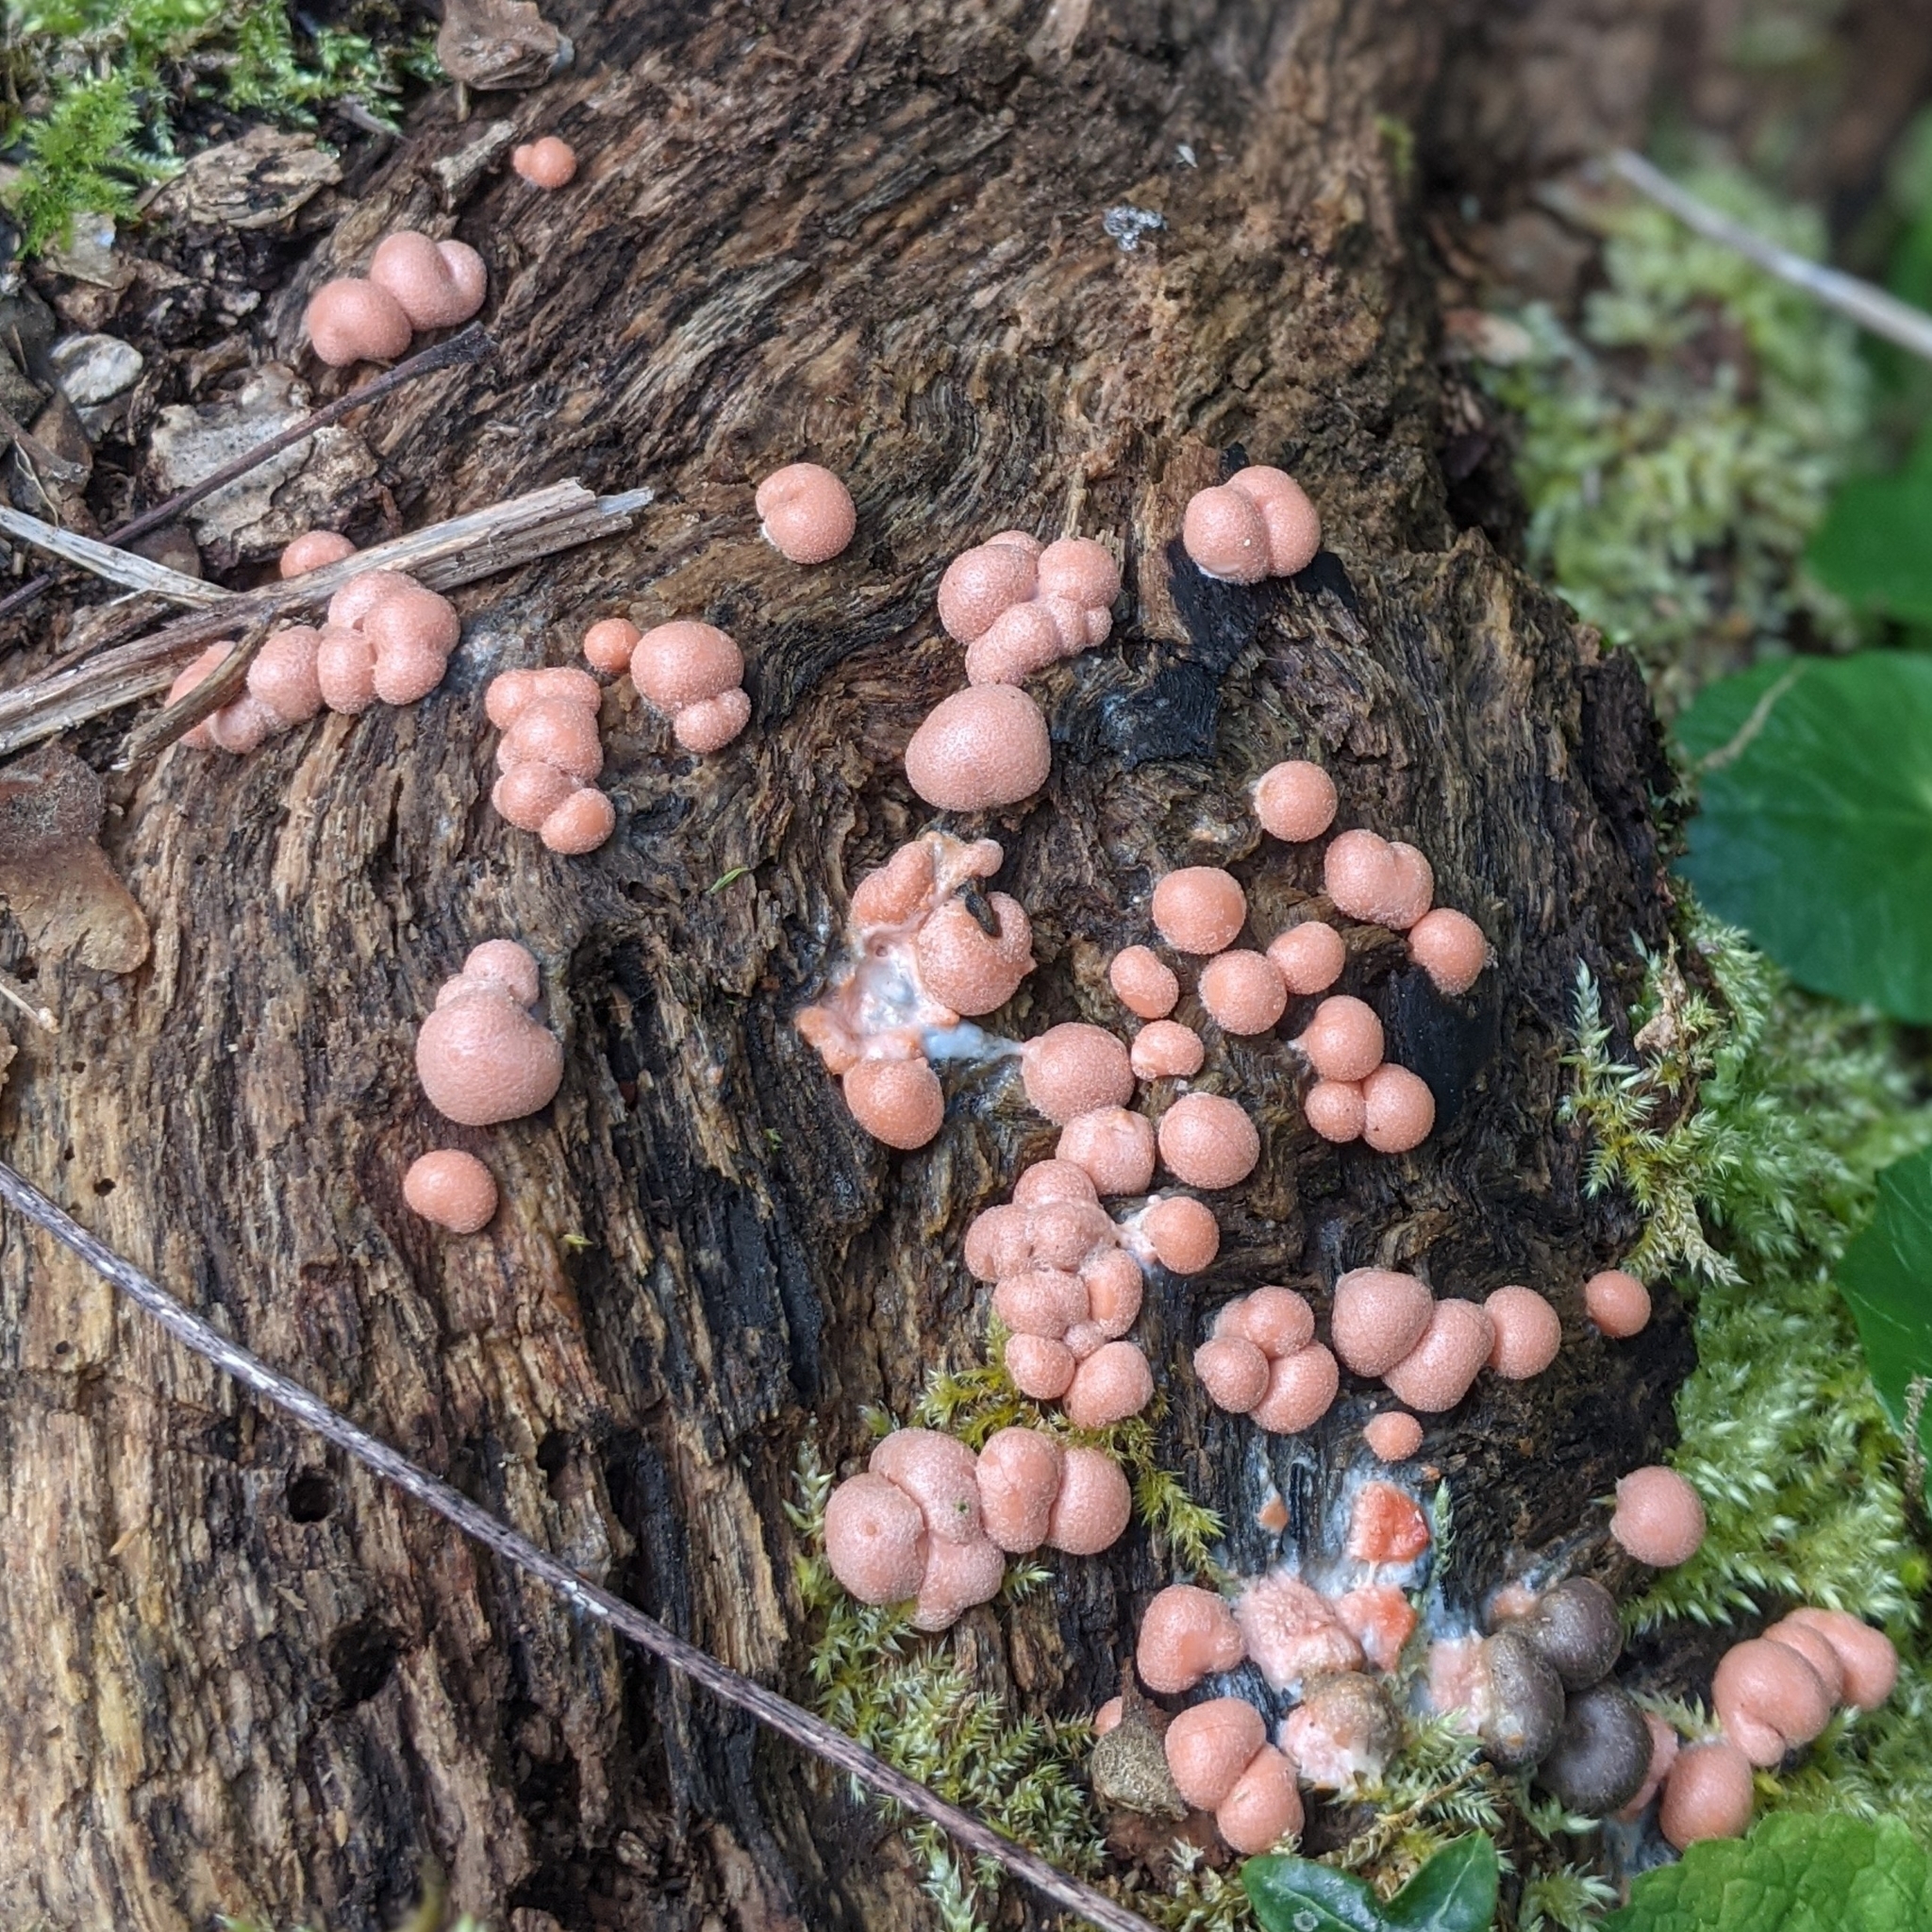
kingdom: Protozoa
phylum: Mycetozoa
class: Myxomycetes
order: Cribrariales
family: Tubiferaceae
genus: Lycogala
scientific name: Lycogala epidendrum
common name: Wolf's milk
